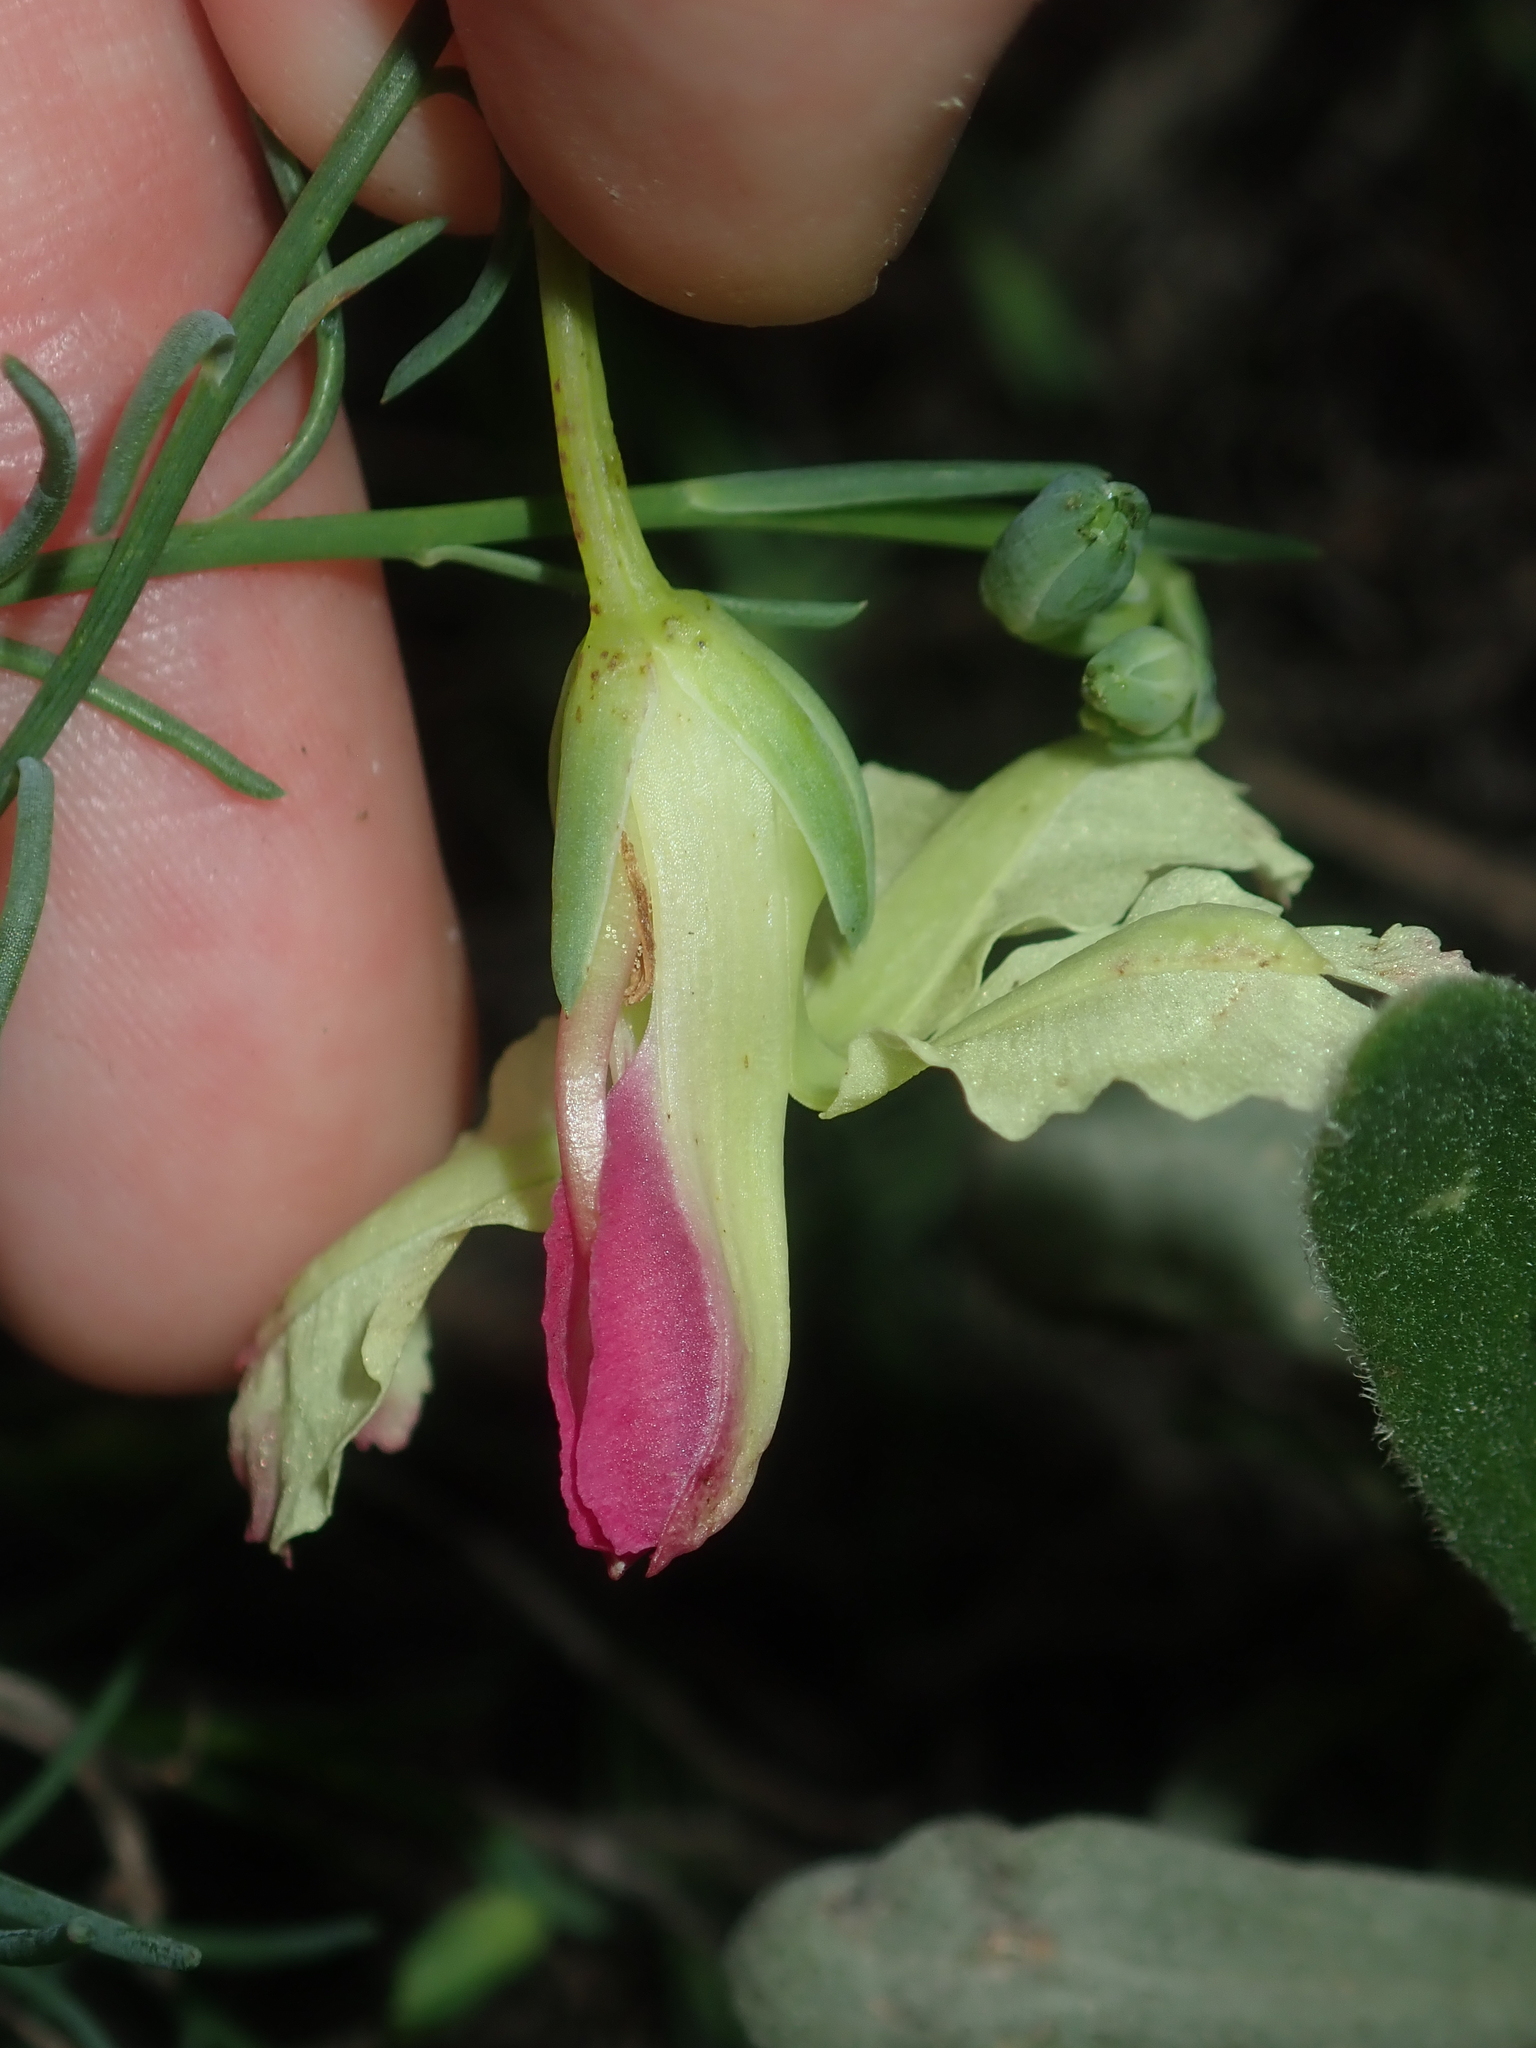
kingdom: Plantae
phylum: Tracheophyta
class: Magnoliopsida
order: Asterales
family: Goodeniaceae
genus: Lechenaultia
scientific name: Lechenaultia linarioides
